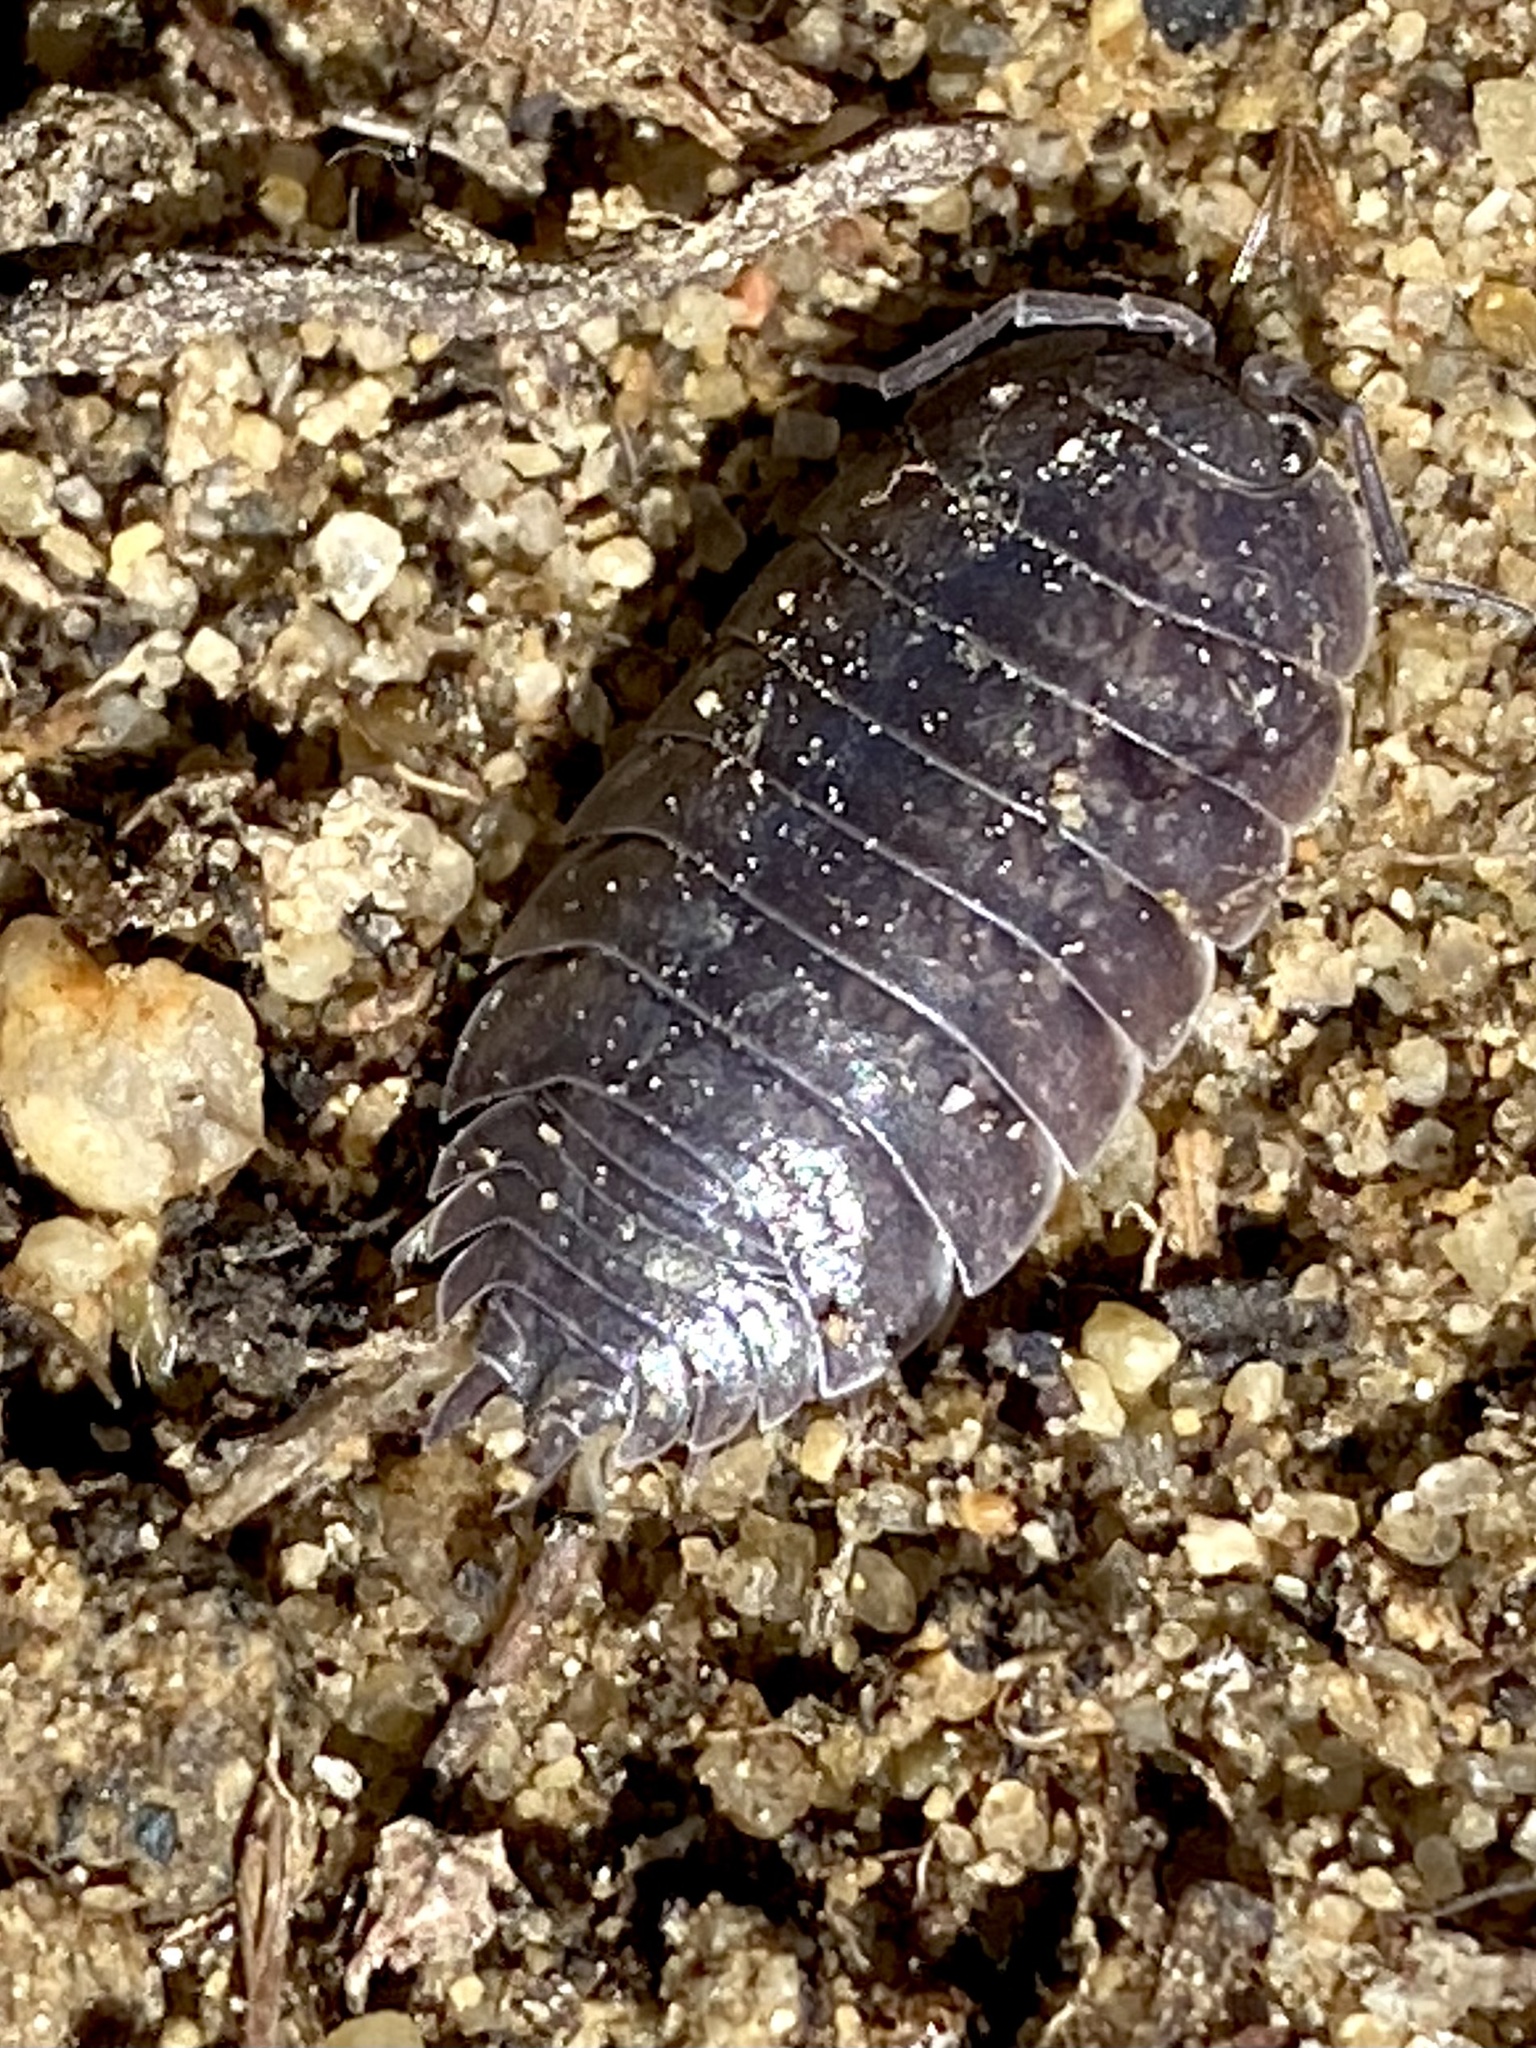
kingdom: Animalia
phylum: Arthropoda
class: Malacostraca
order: Isopoda
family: Porcellionidae
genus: Porcellio
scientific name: Porcellio laevis
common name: Swift woodlouse
